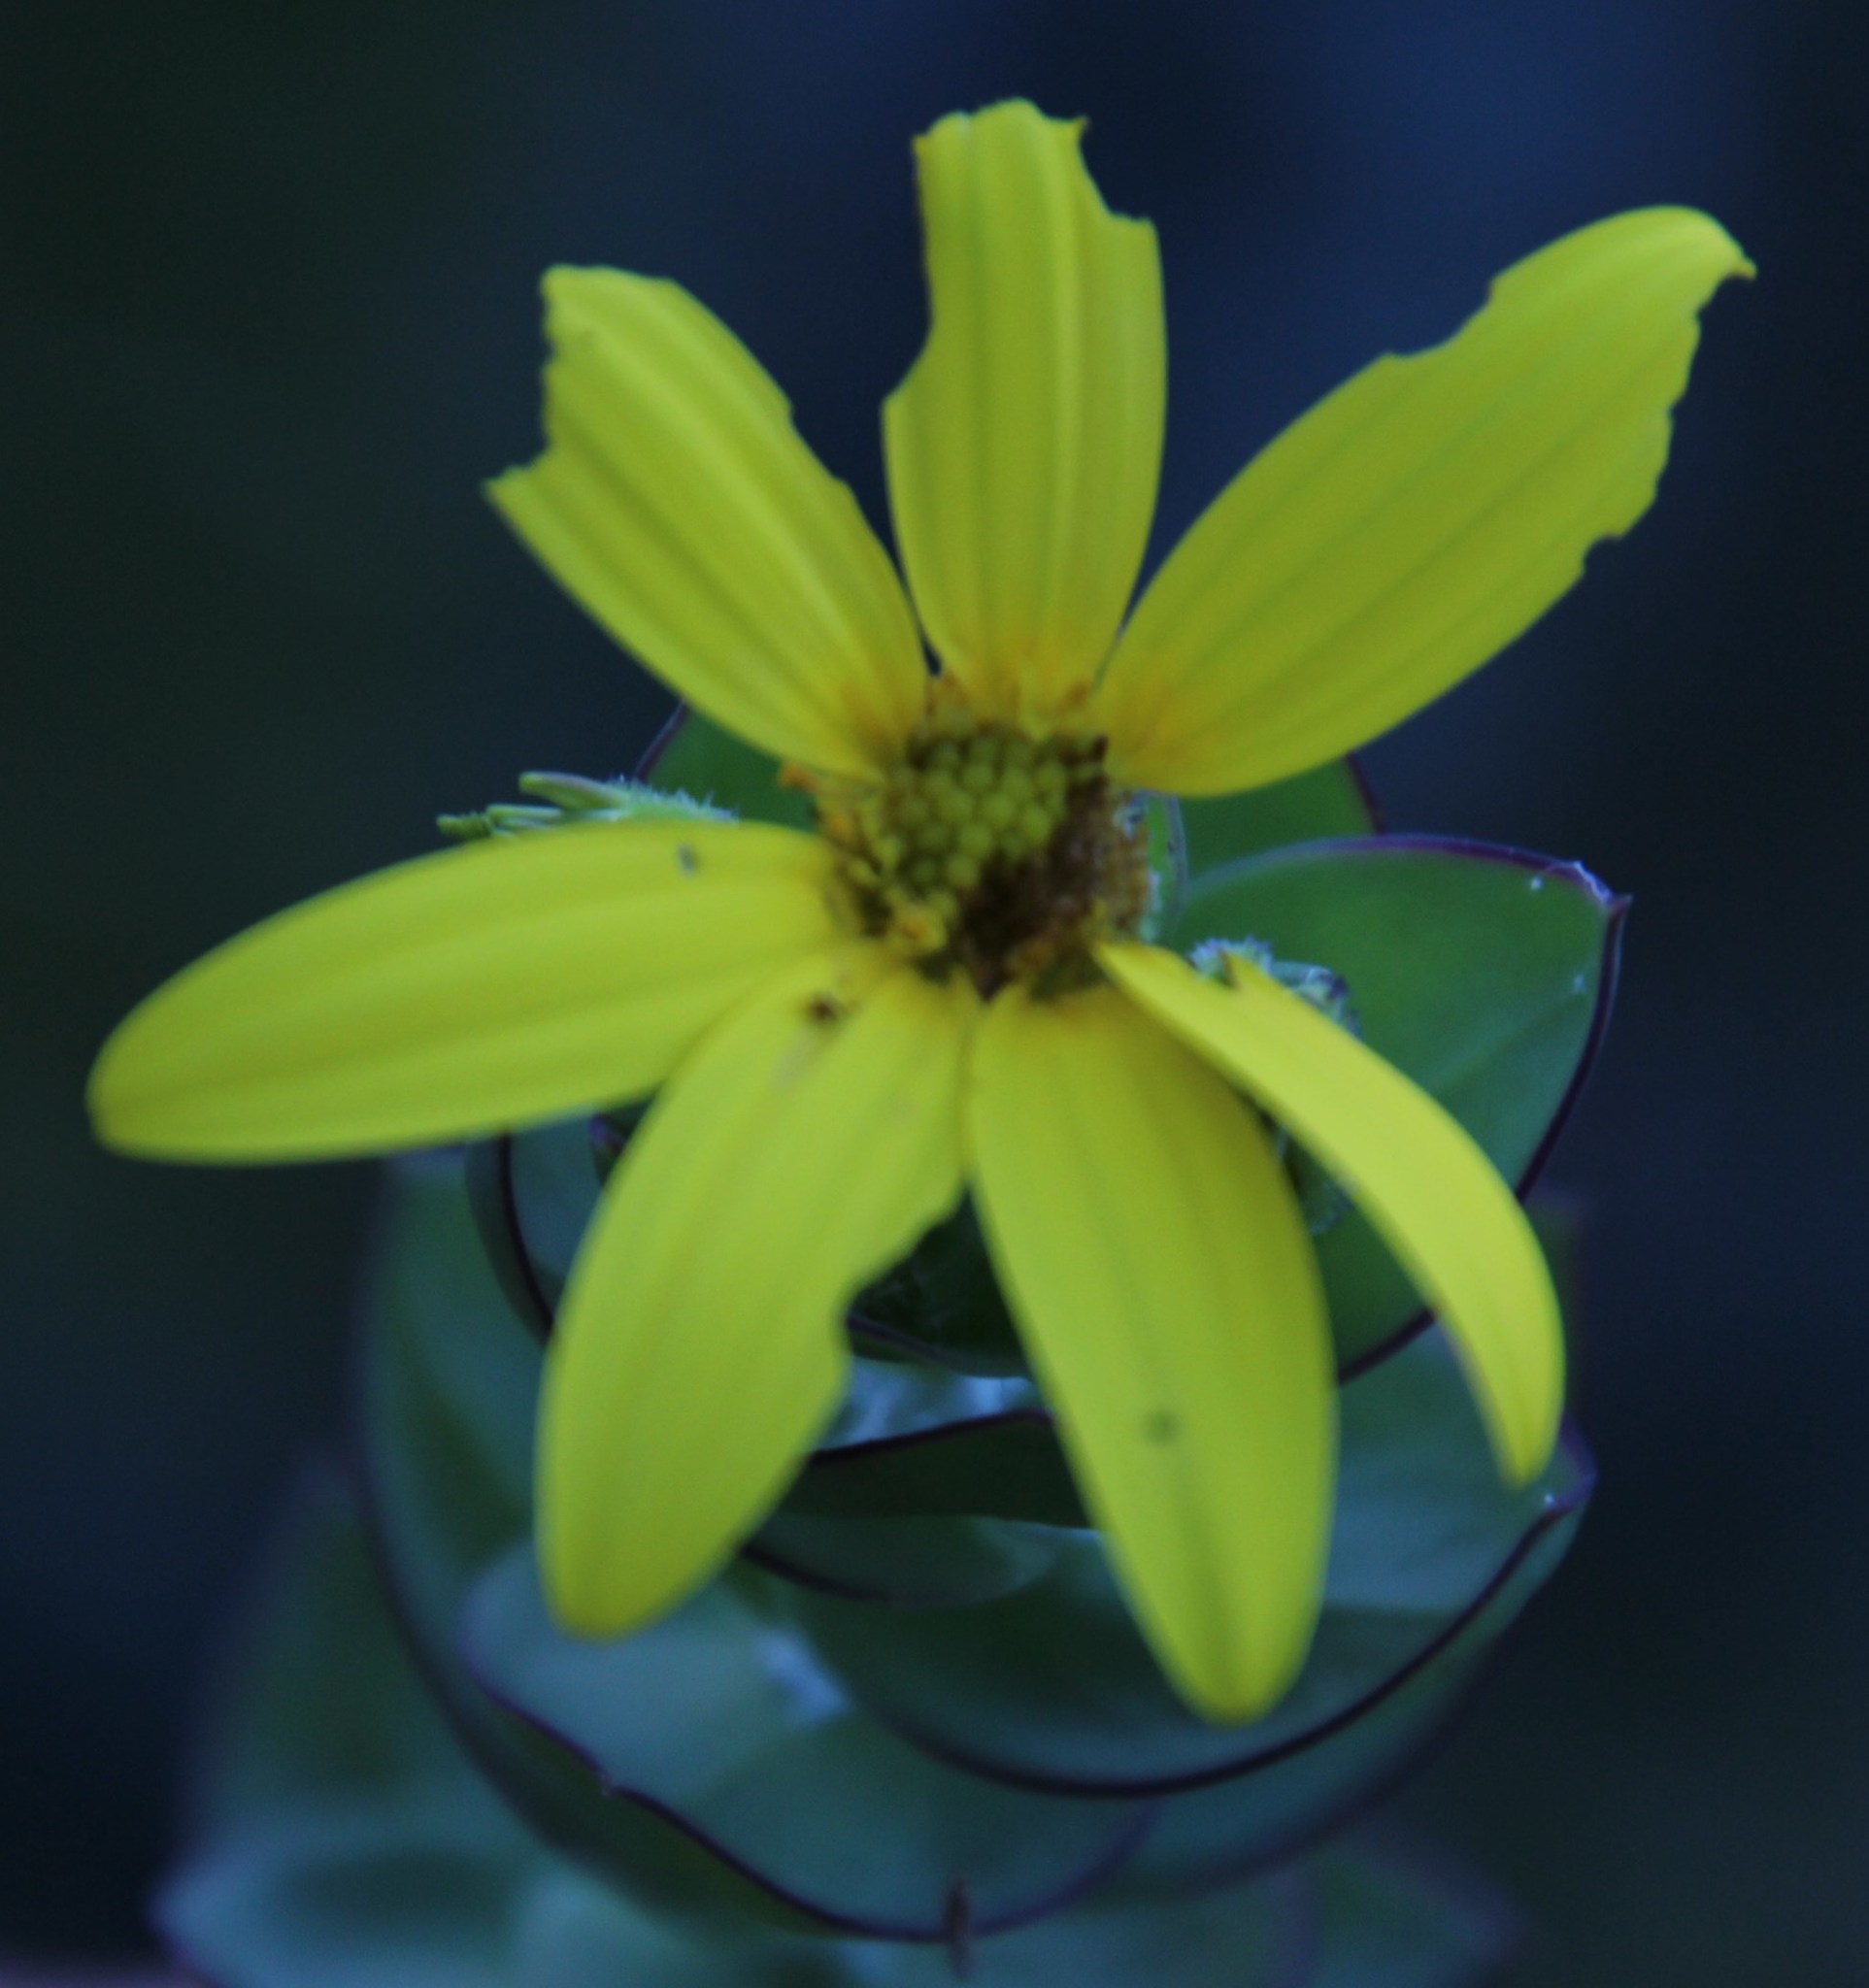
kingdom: Plantae
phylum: Tracheophyta
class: Magnoliopsida
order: Asterales
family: Asteraceae
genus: Osteospermum
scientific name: Osteospermum polygaloides
